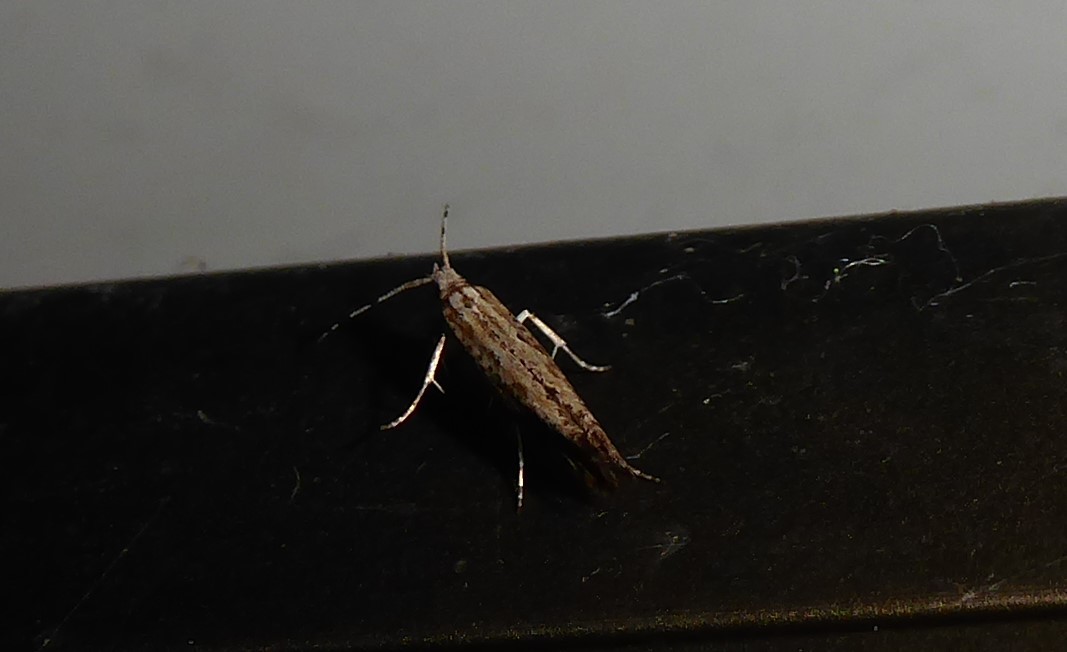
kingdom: Animalia
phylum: Arthropoda
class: Insecta
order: Lepidoptera
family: Plutellidae
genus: Plutella
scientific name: Plutella xylostella
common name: Diamond-back moth
